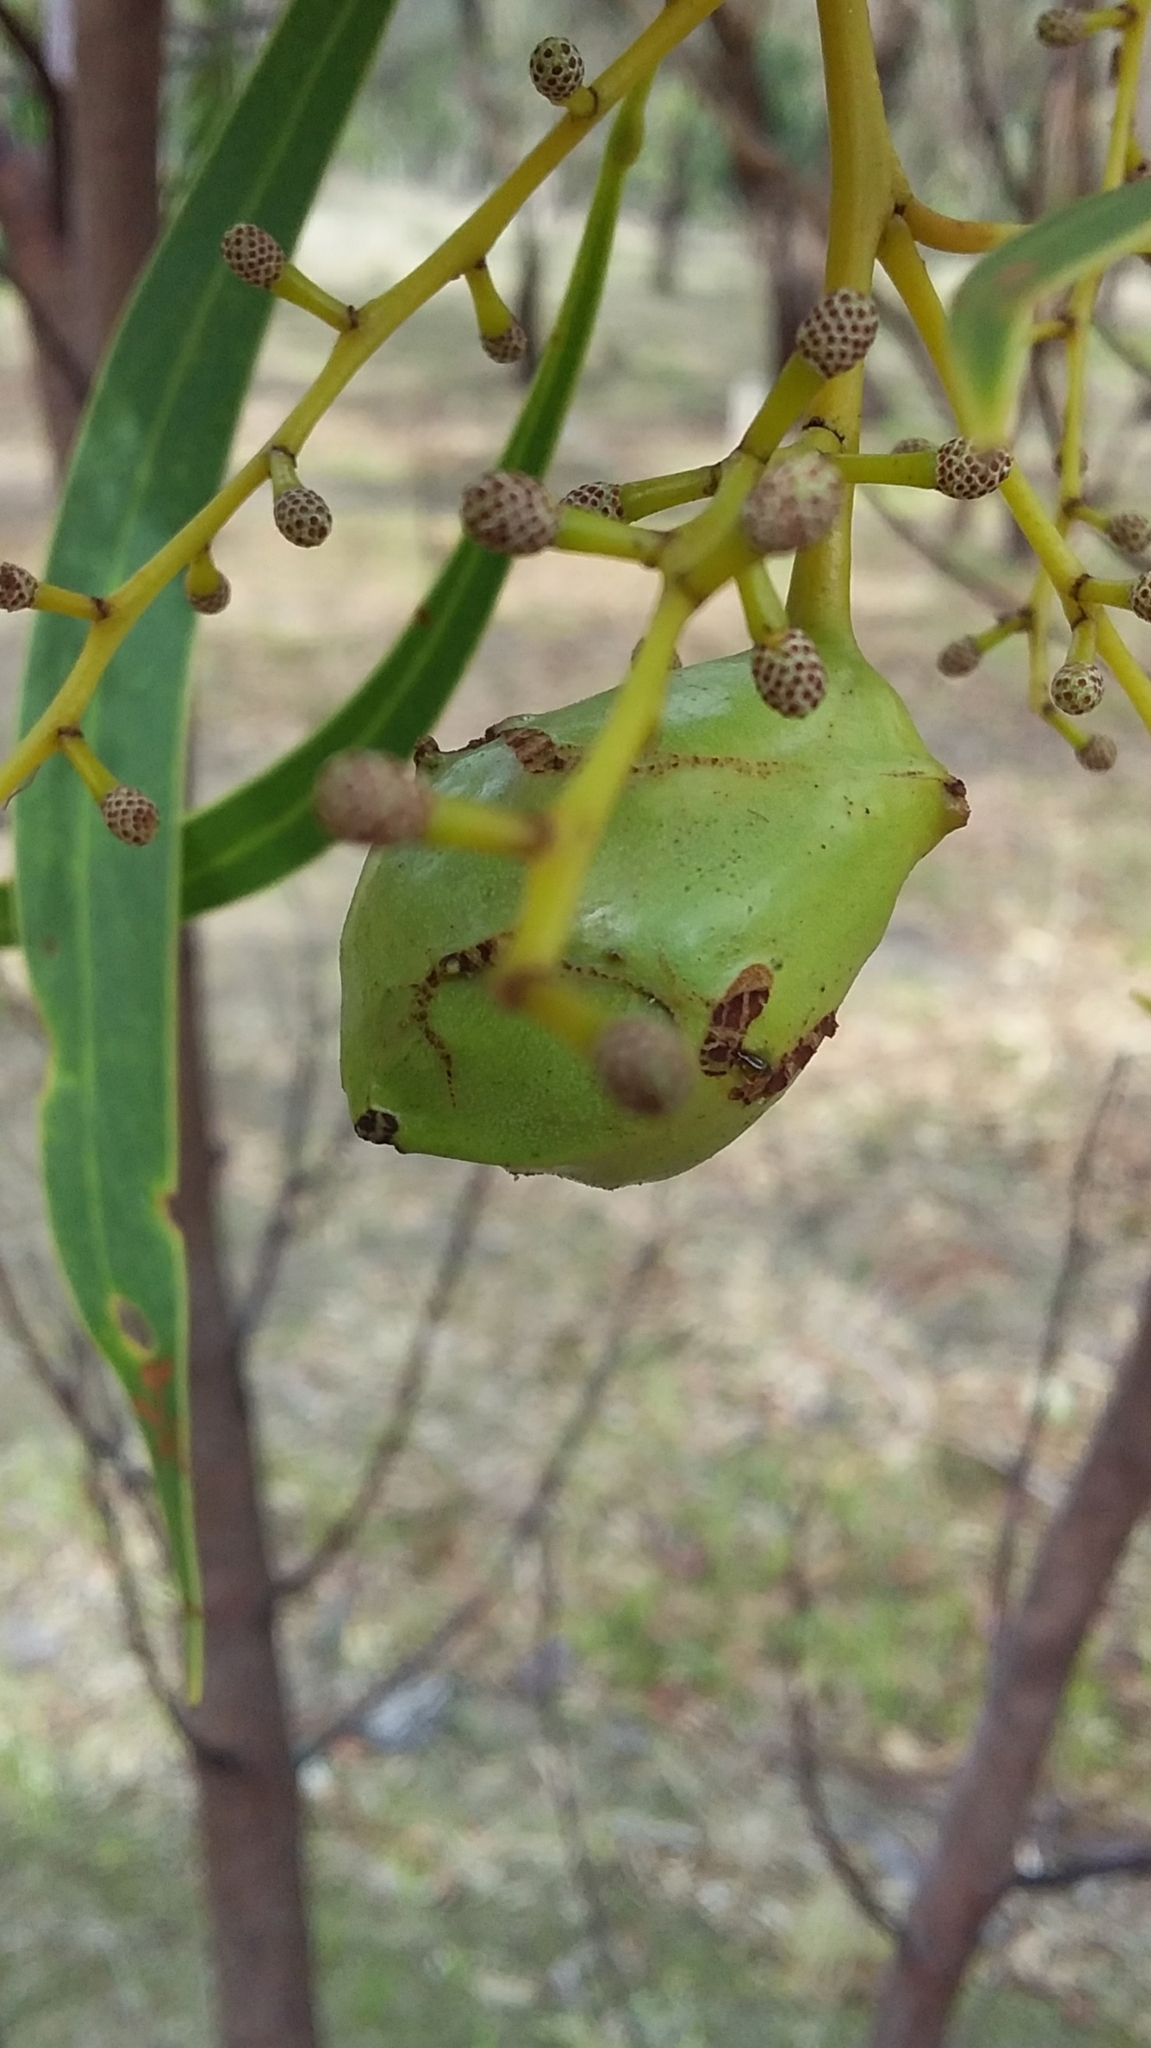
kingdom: Animalia
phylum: Arthropoda
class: Insecta
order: Hymenoptera
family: Pteromalidae
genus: Trichilogaster
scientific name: Trichilogaster signiventris
